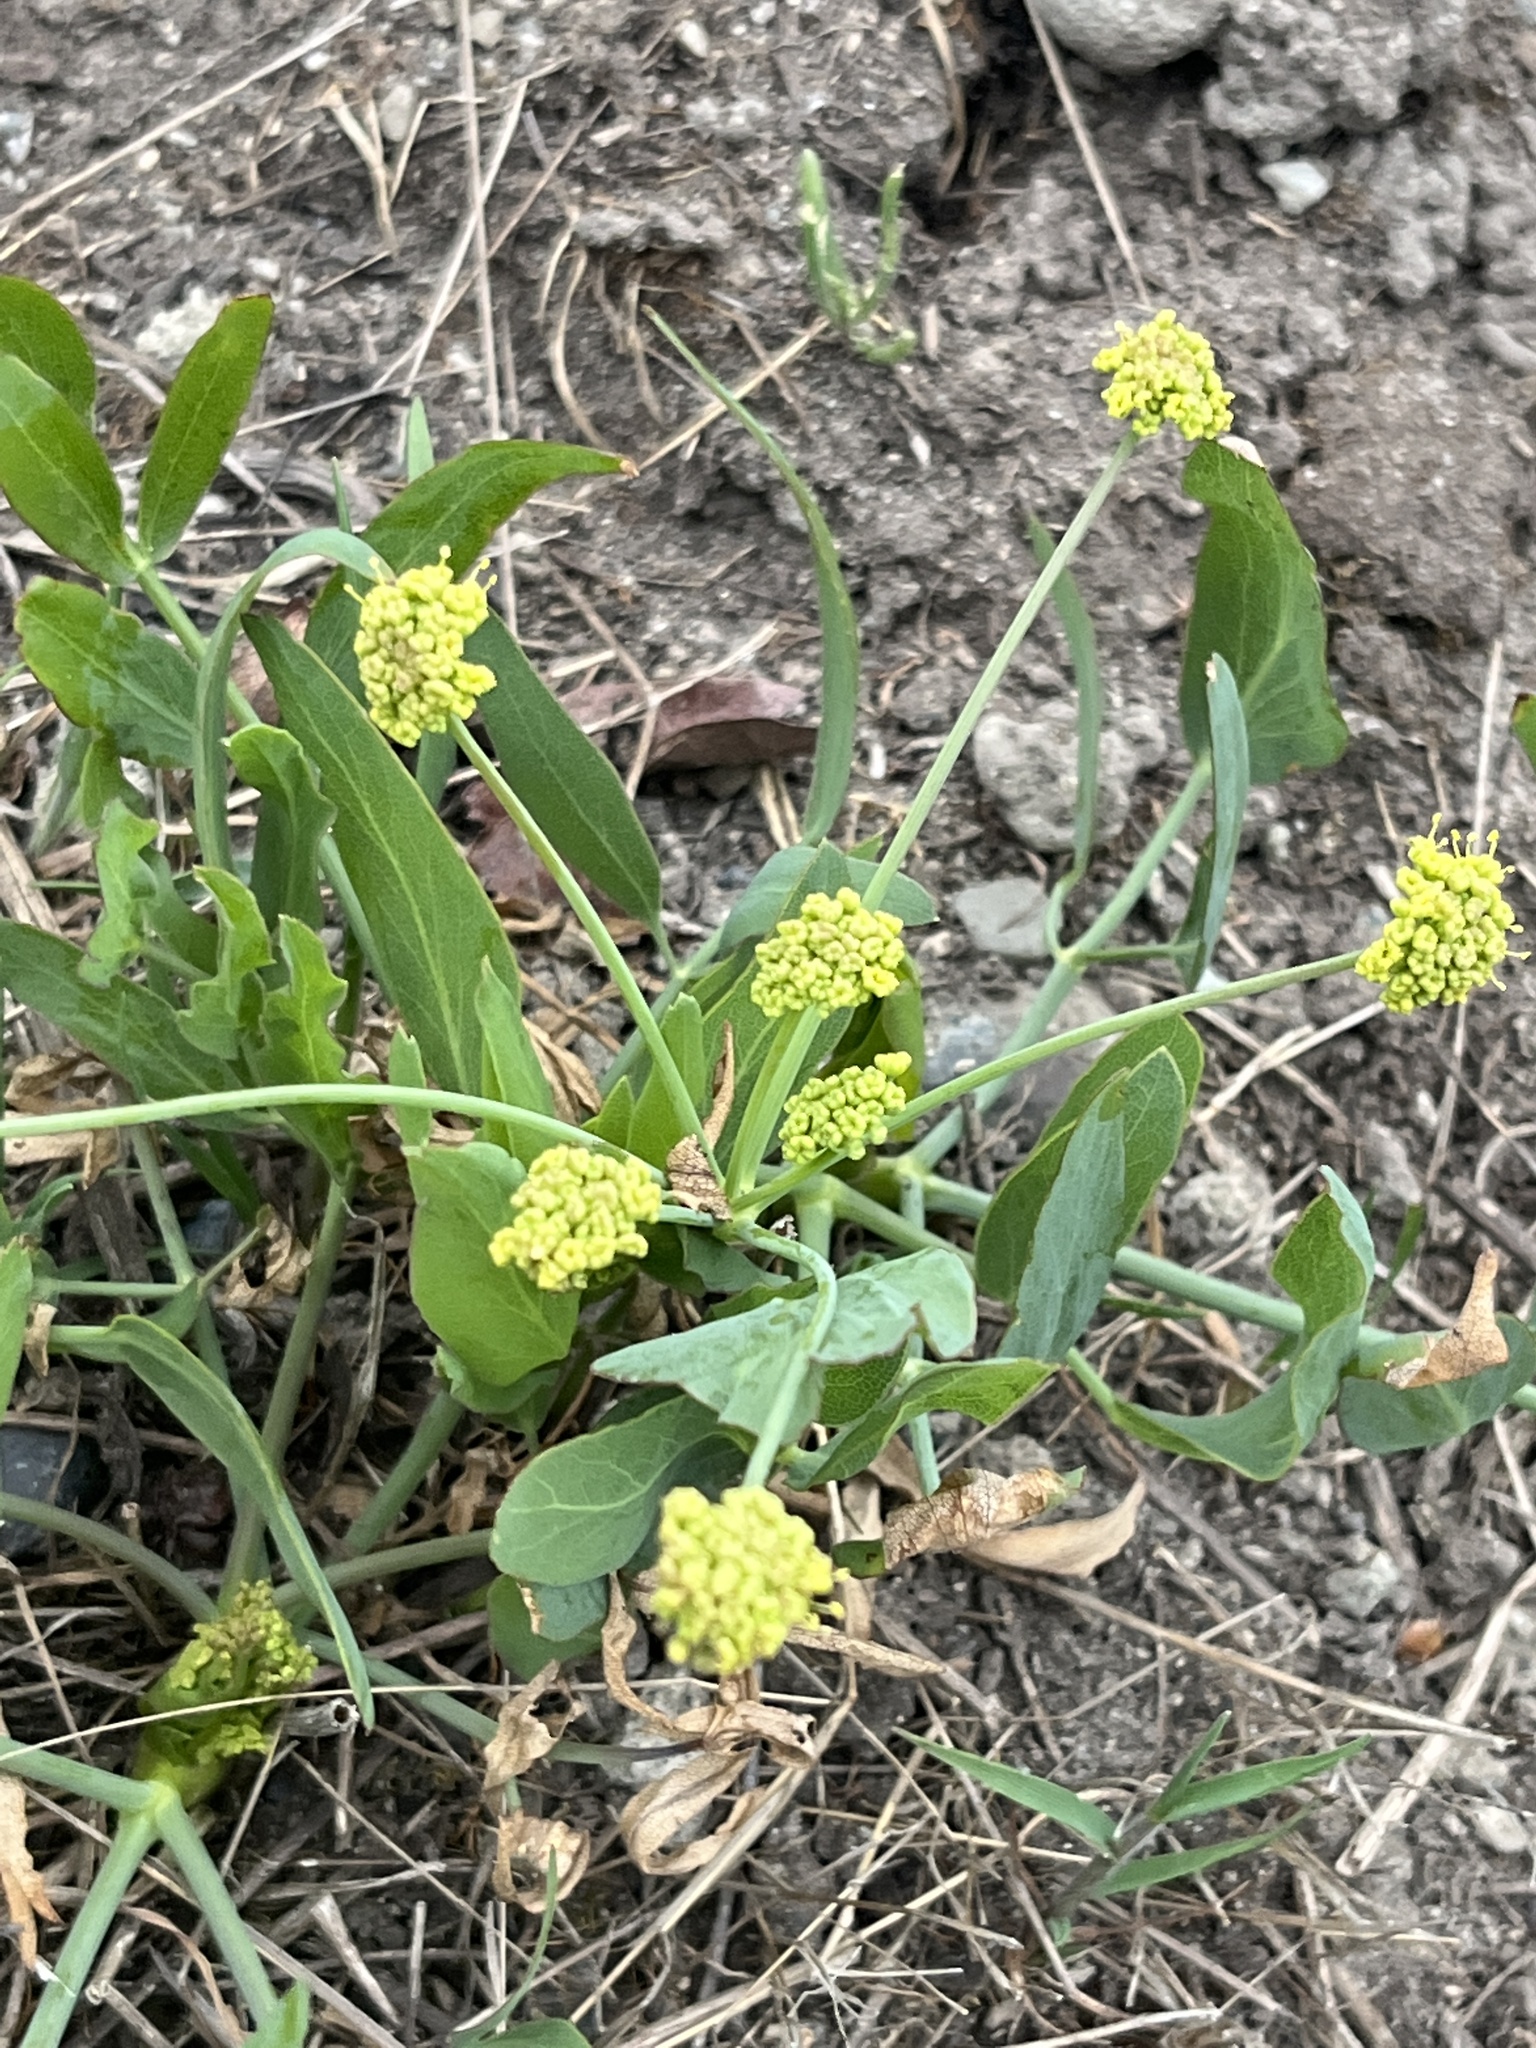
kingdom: Plantae
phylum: Tracheophyta
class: Magnoliopsida
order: Apiales
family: Apiaceae
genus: Lomatium
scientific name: Lomatium nudicaule
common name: Pestle lomatium
